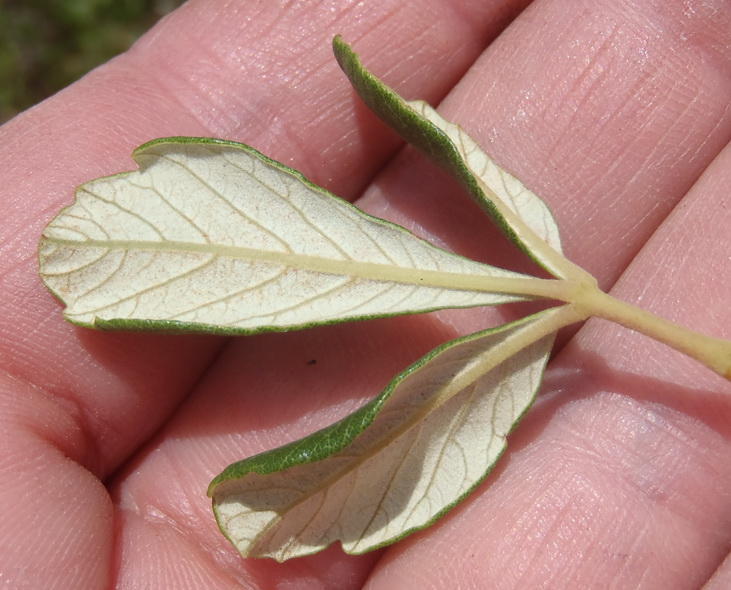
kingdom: Plantae
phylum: Tracheophyta
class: Magnoliopsida
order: Sapindales
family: Anacardiaceae
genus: Searsia
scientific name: Searsia tomentosa
